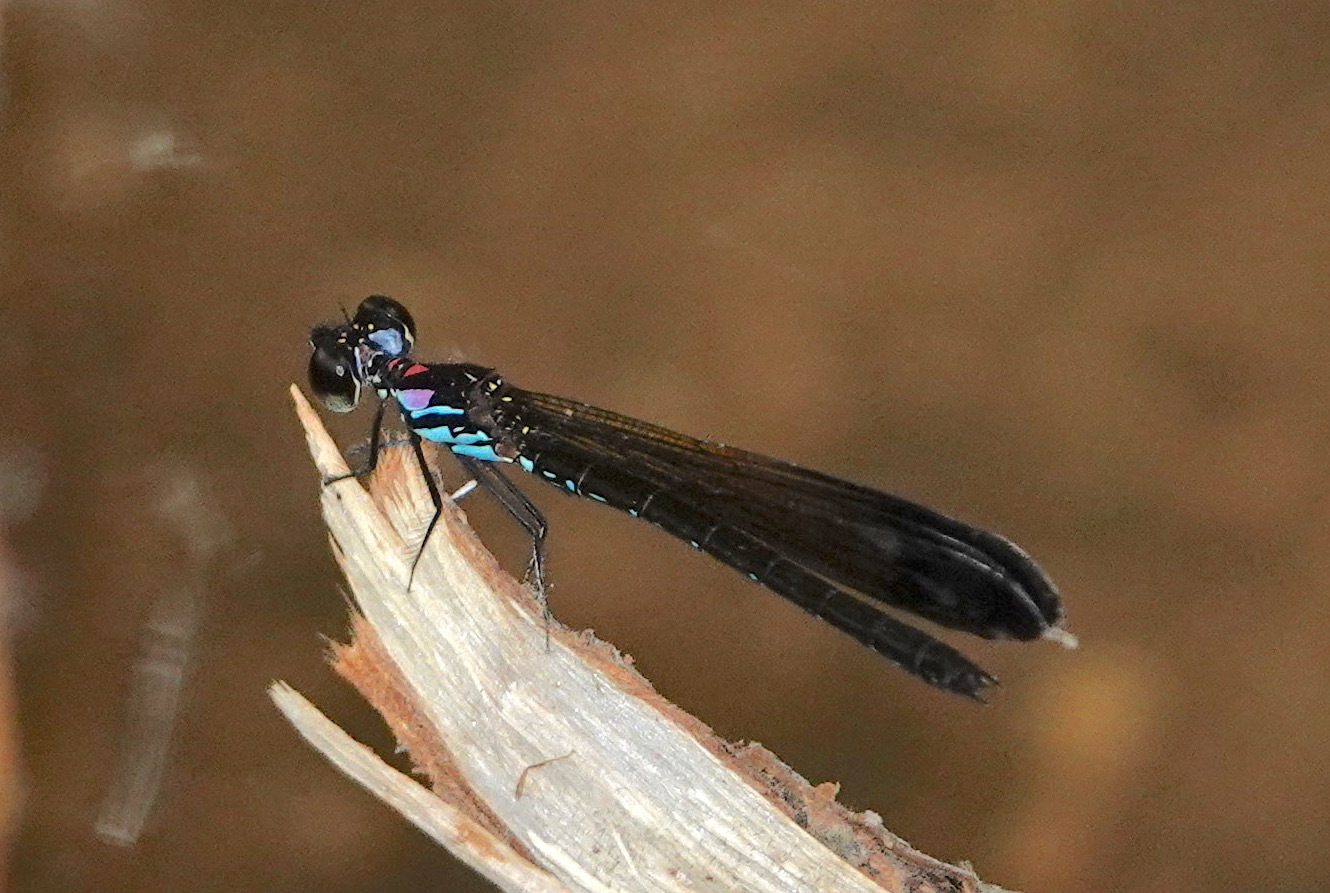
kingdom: Animalia
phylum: Arthropoda
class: Insecta
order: Odonata
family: Chlorocyphidae
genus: Heliocypha
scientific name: Heliocypha biforata
